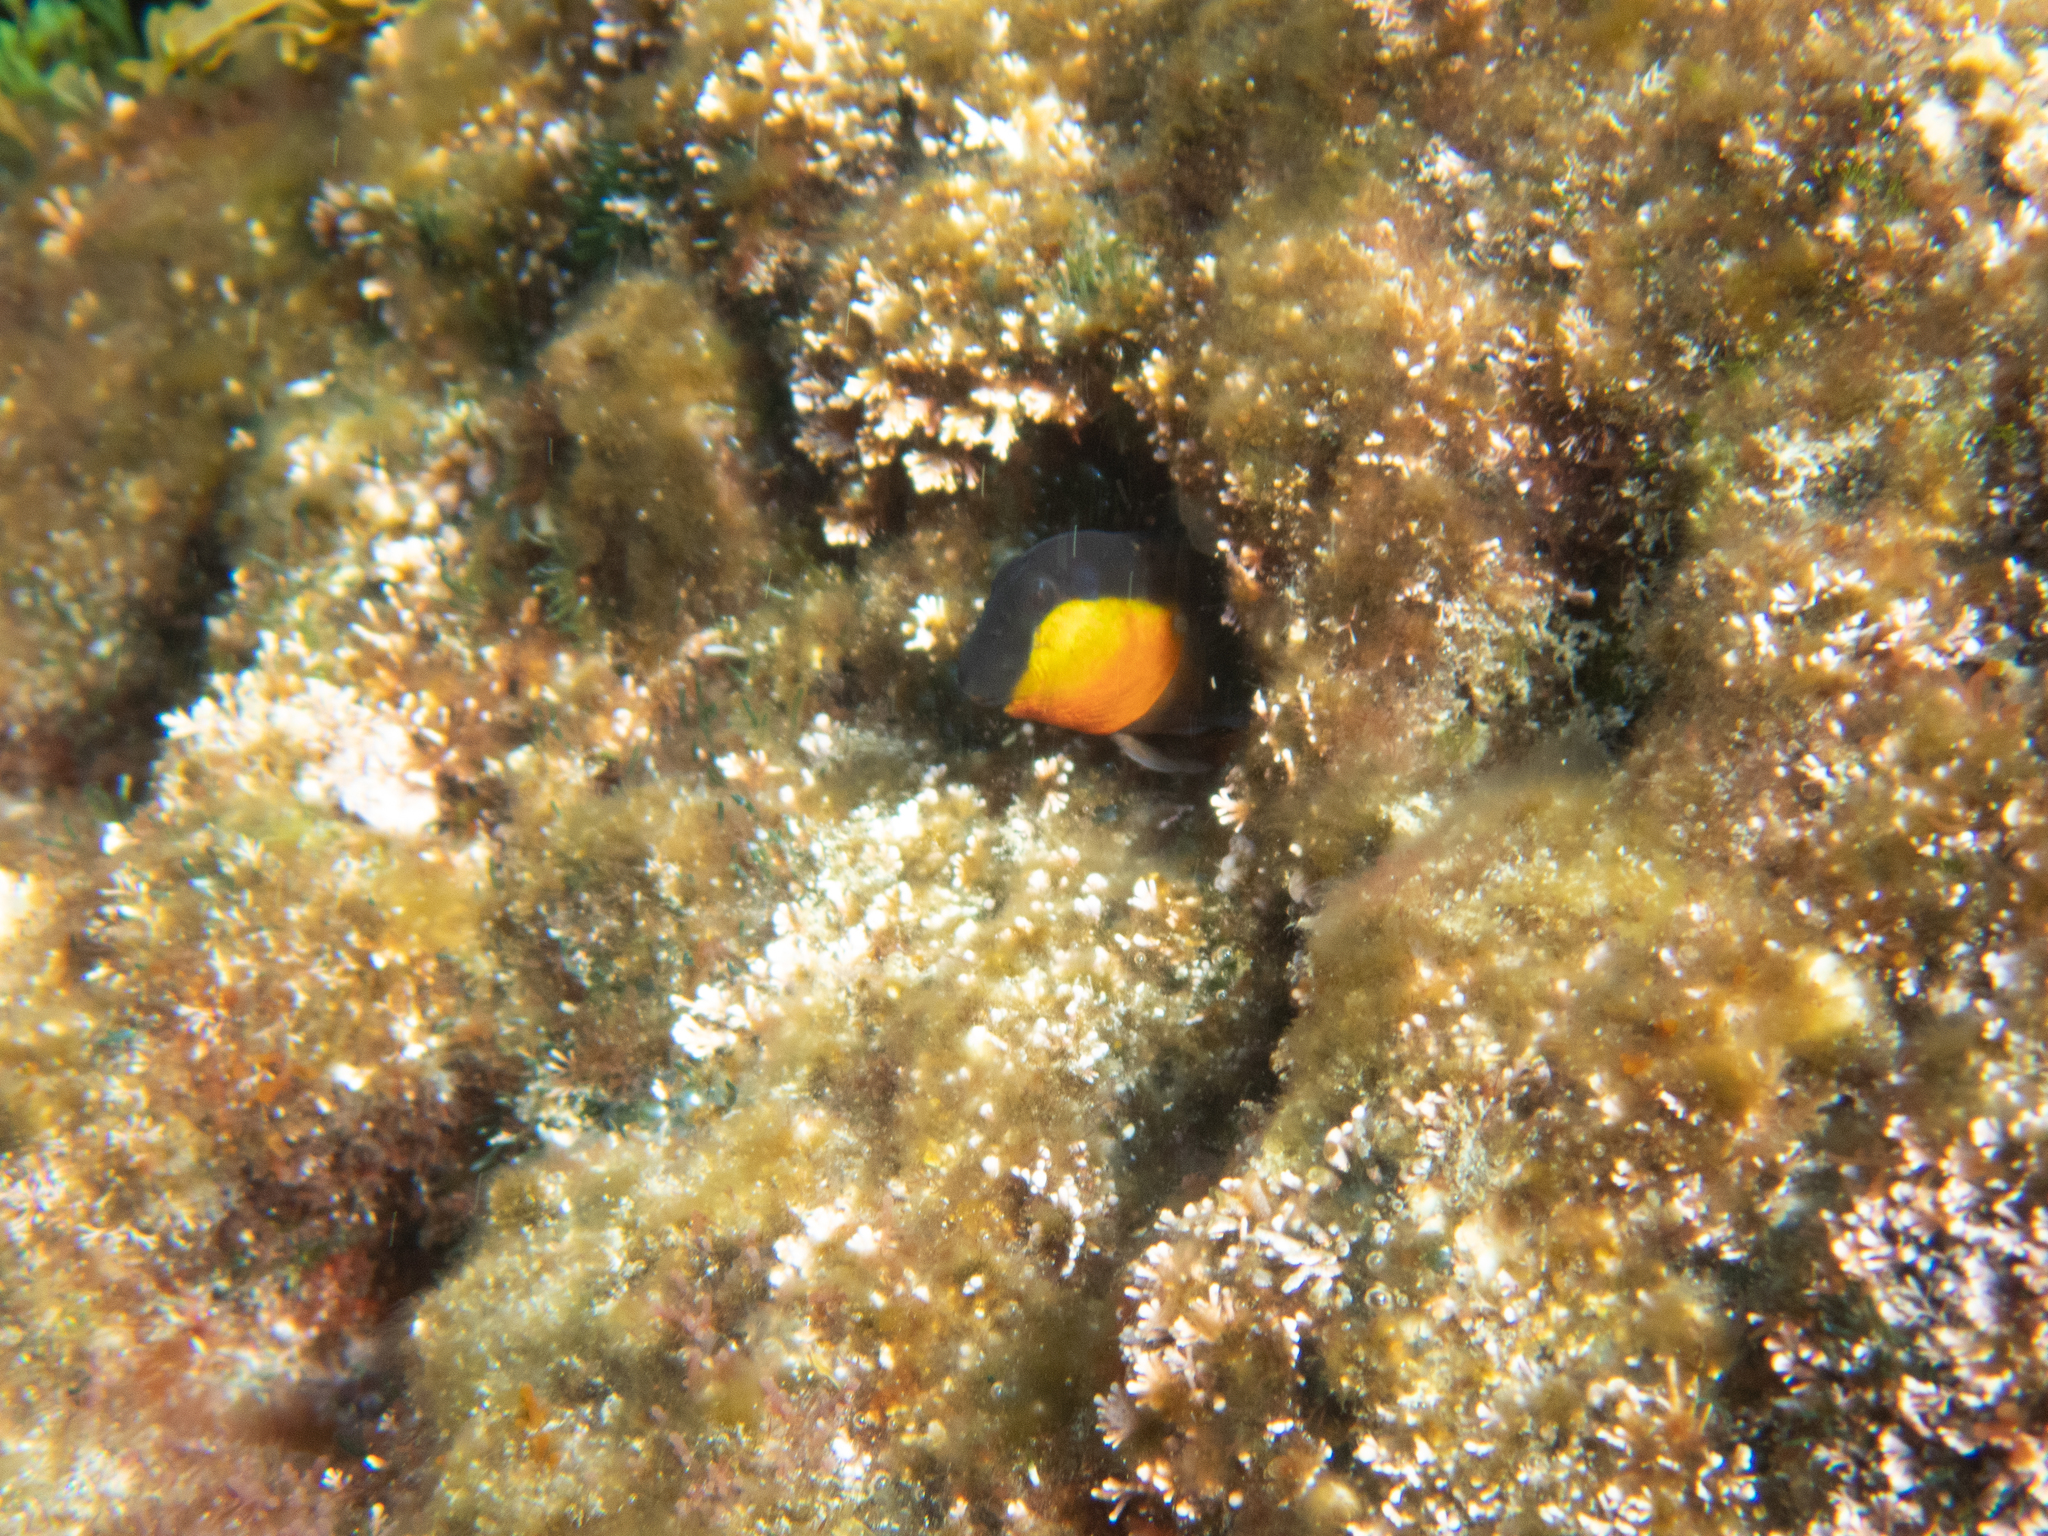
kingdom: Animalia
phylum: Chordata
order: Perciformes
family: Blenniidae
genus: Microlipophrys
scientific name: Microlipophrys canevae
